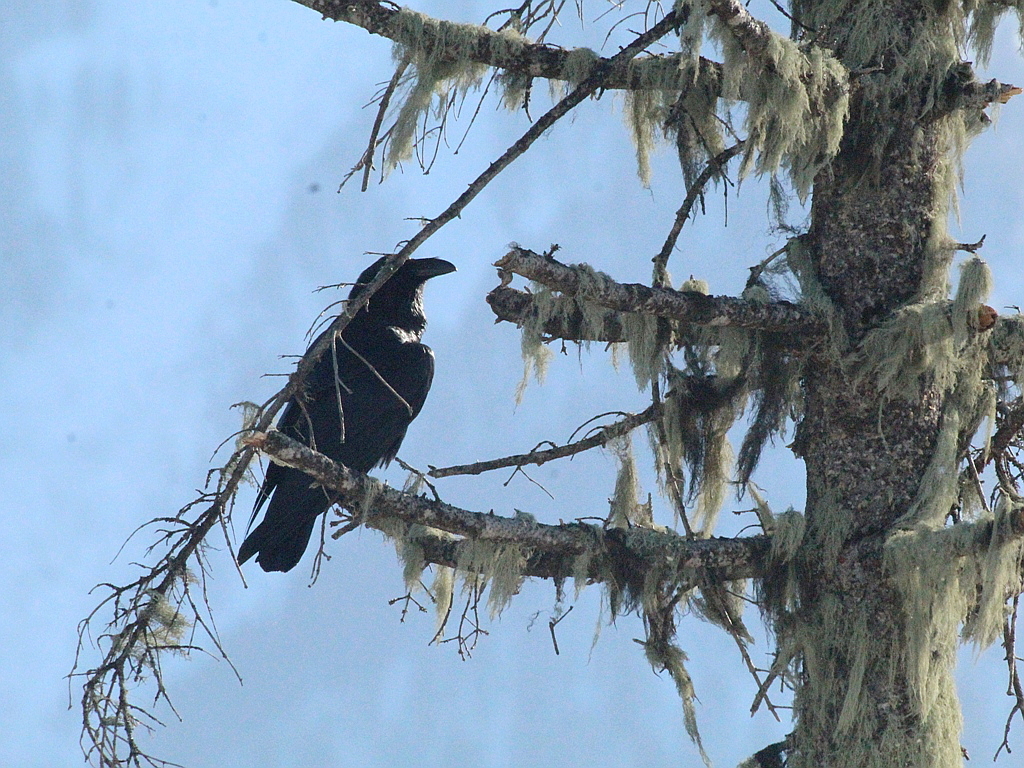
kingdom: Animalia
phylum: Chordata
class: Aves
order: Passeriformes
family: Corvidae
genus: Corvus
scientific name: Corvus corax
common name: Common raven
